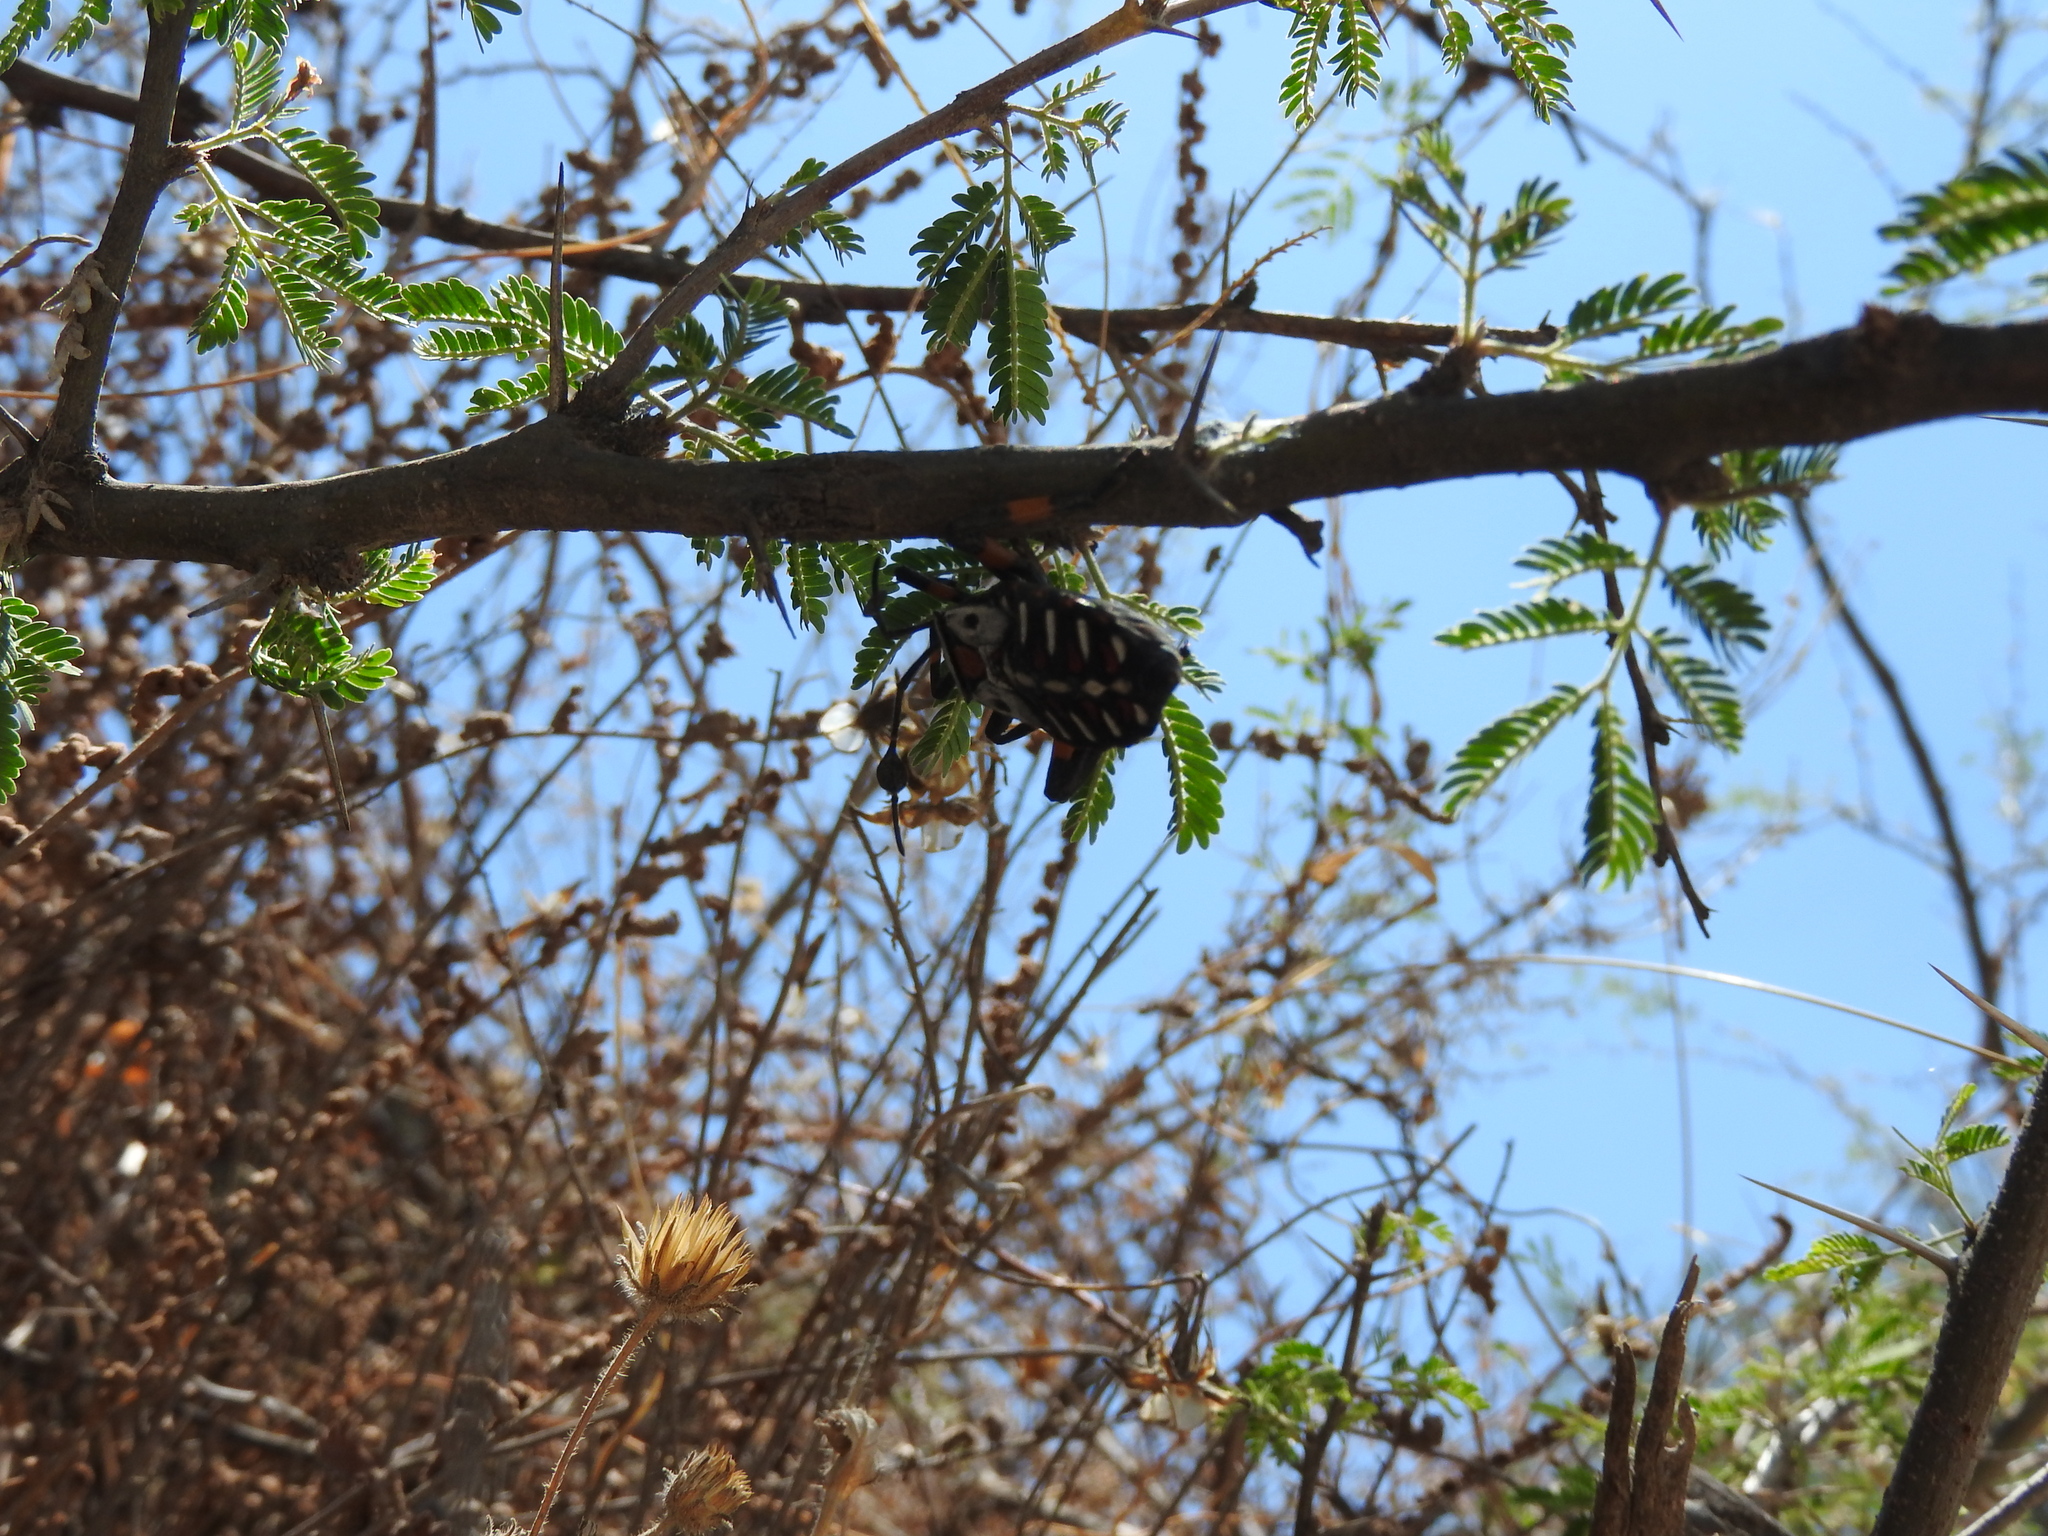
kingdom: Animalia
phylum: Arthropoda
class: Insecta
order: Hemiptera
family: Coreidae
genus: Thasus
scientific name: Thasus
